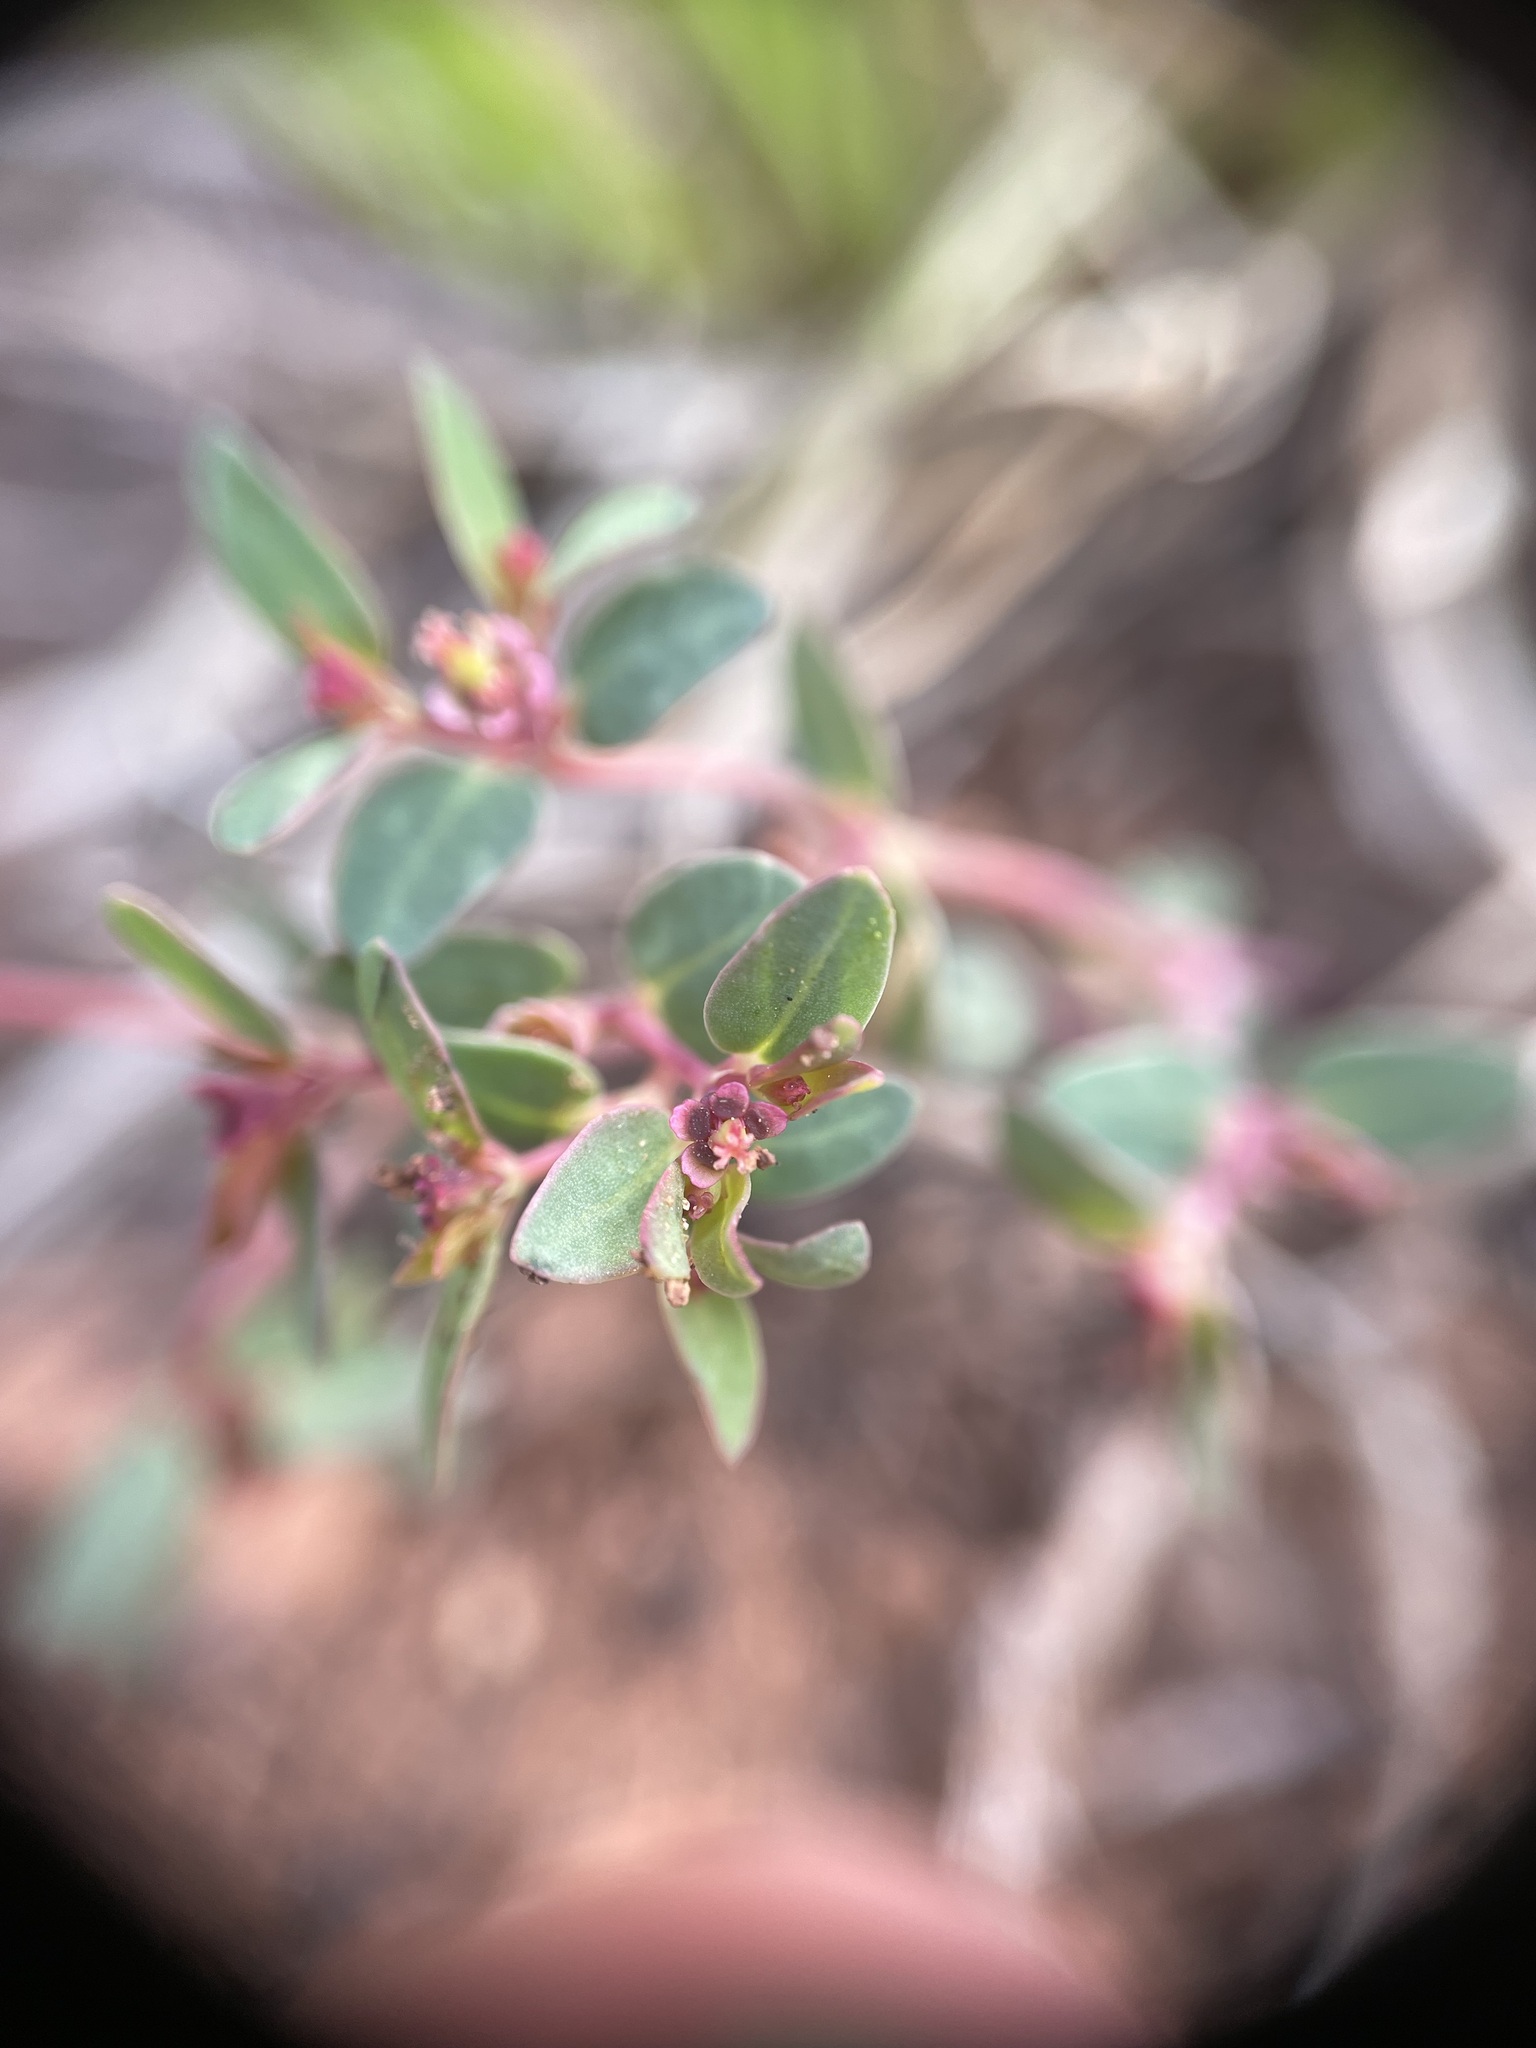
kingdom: Plantae
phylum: Tracheophyta
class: Magnoliopsida
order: Malpighiales
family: Euphorbiaceae
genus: Euphorbia
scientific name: Euphorbia fendleri
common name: Fendler's euphorbia
